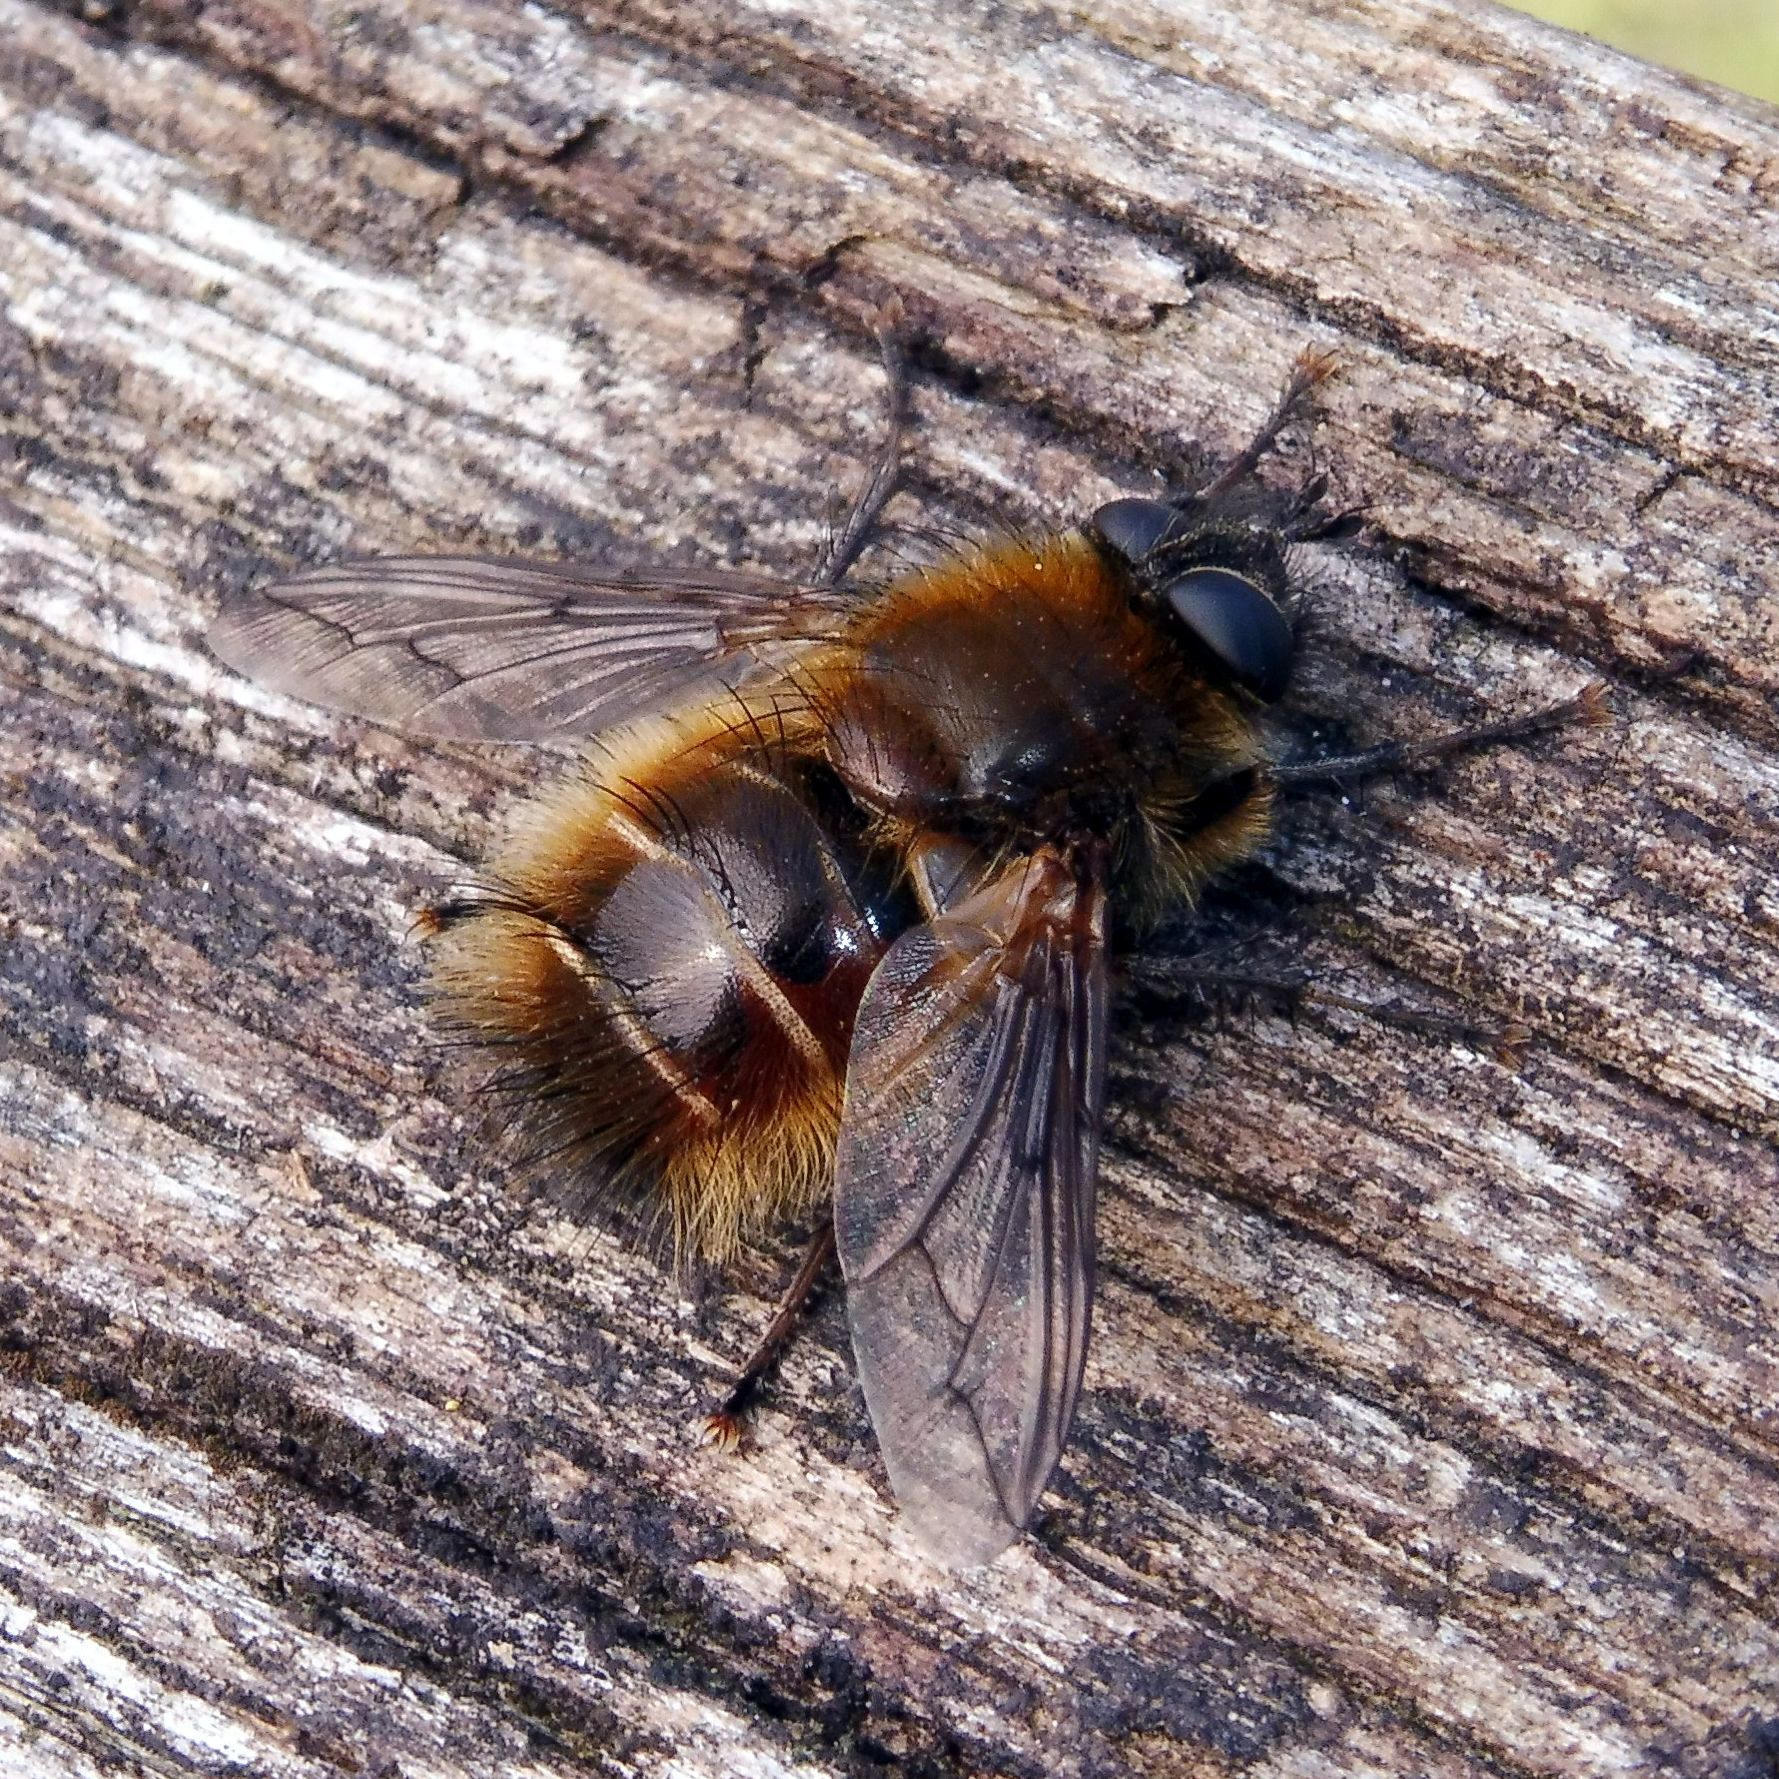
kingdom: Animalia
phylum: Arthropoda
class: Insecta
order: Diptera
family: Tachinidae
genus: Tachina
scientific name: Tachina ursina
